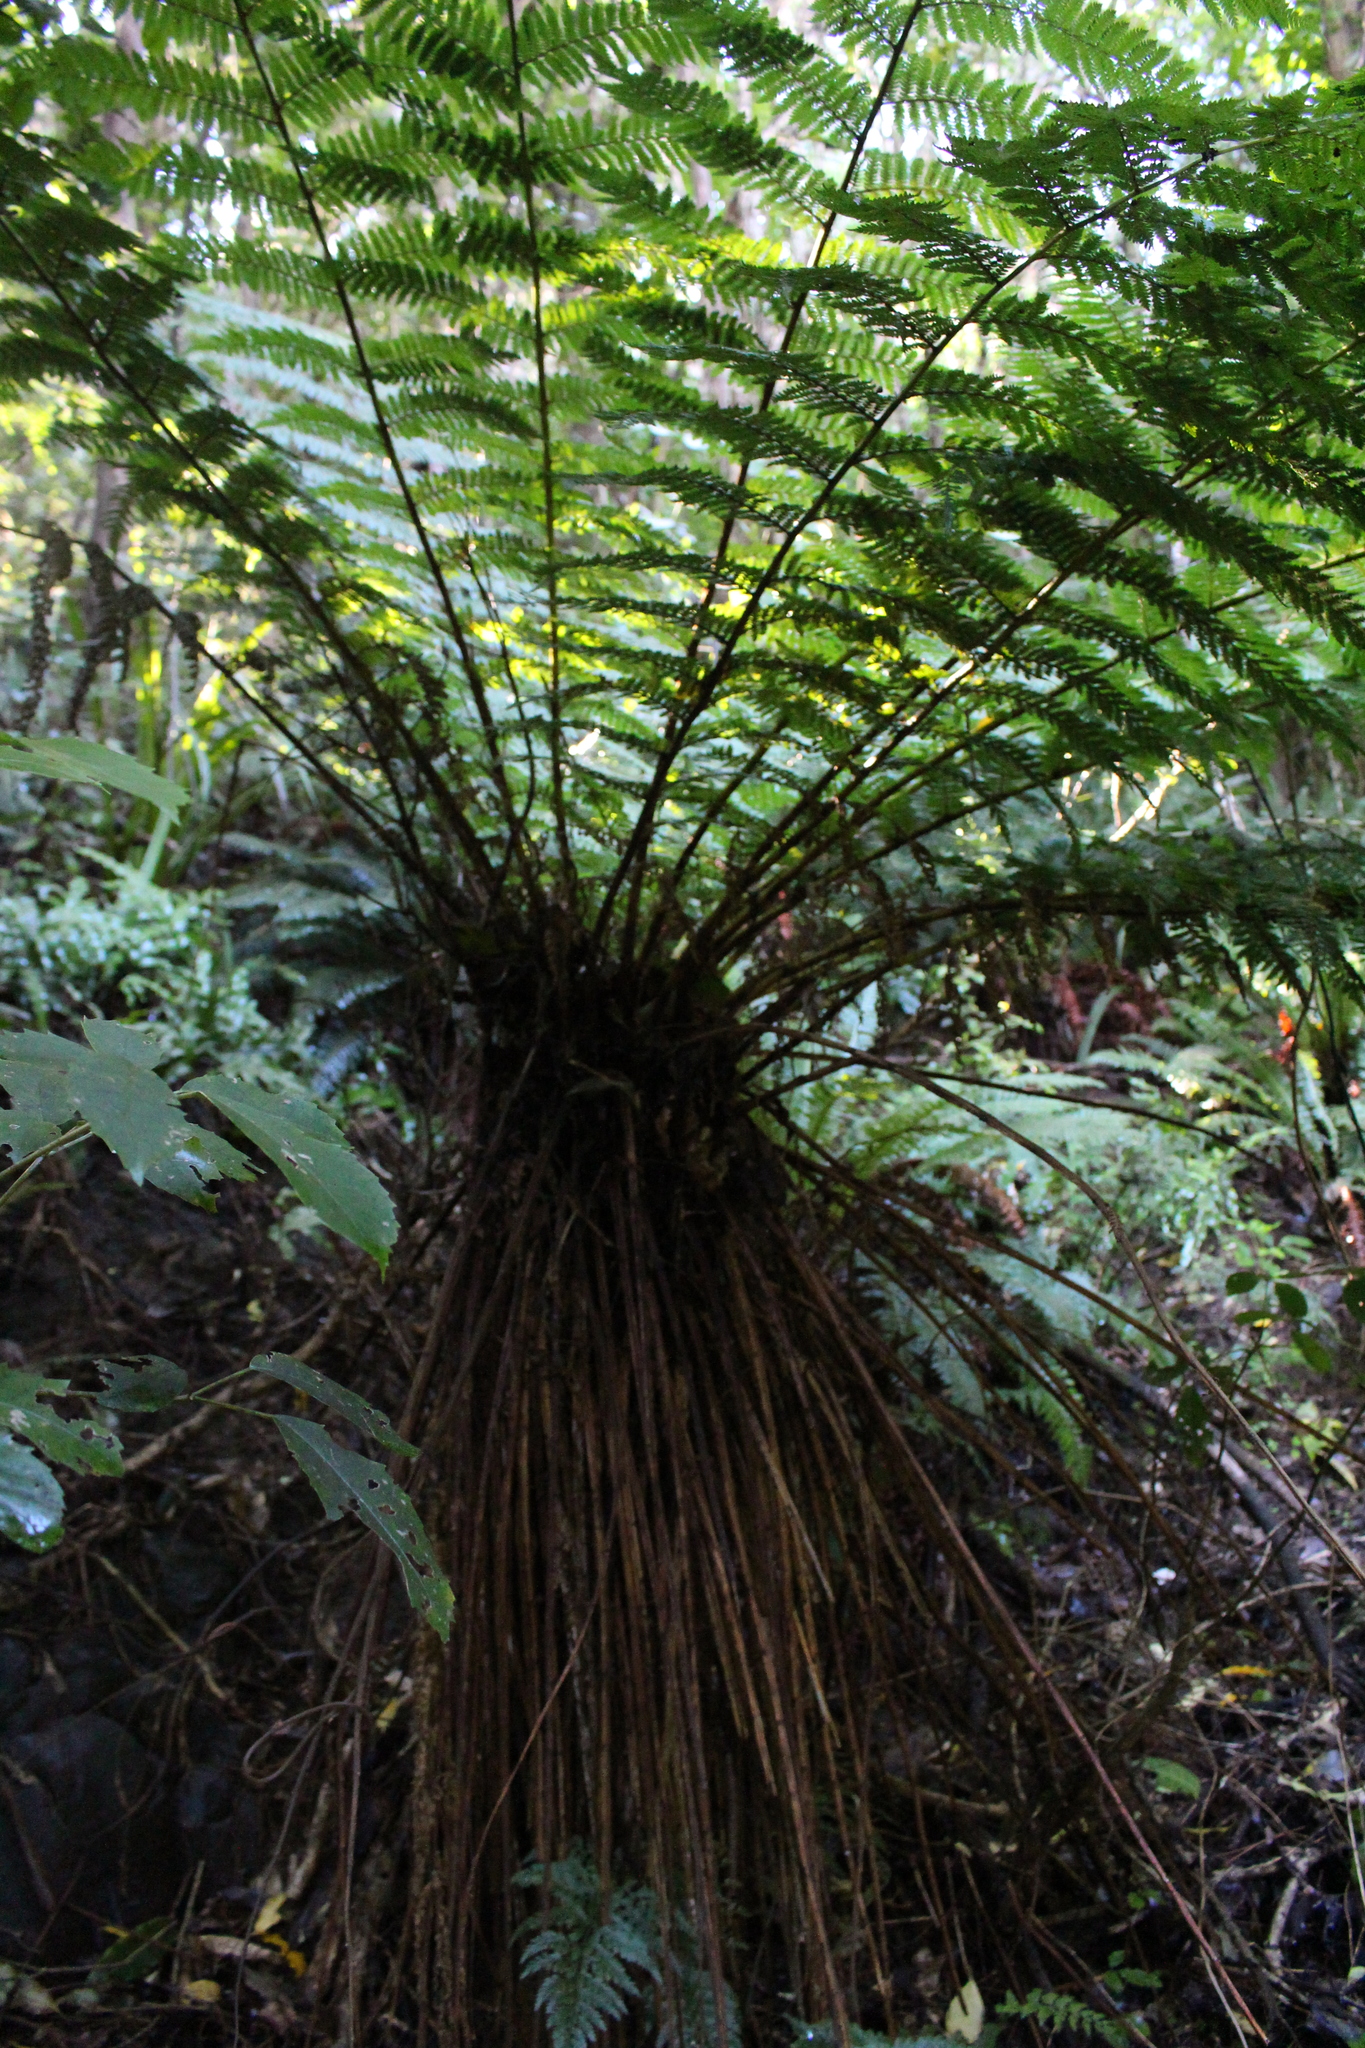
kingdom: Plantae
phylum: Tracheophyta
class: Polypodiopsida
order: Cyatheales
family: Cyatheaceae
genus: Alsophila
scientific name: Alsophila smithii
